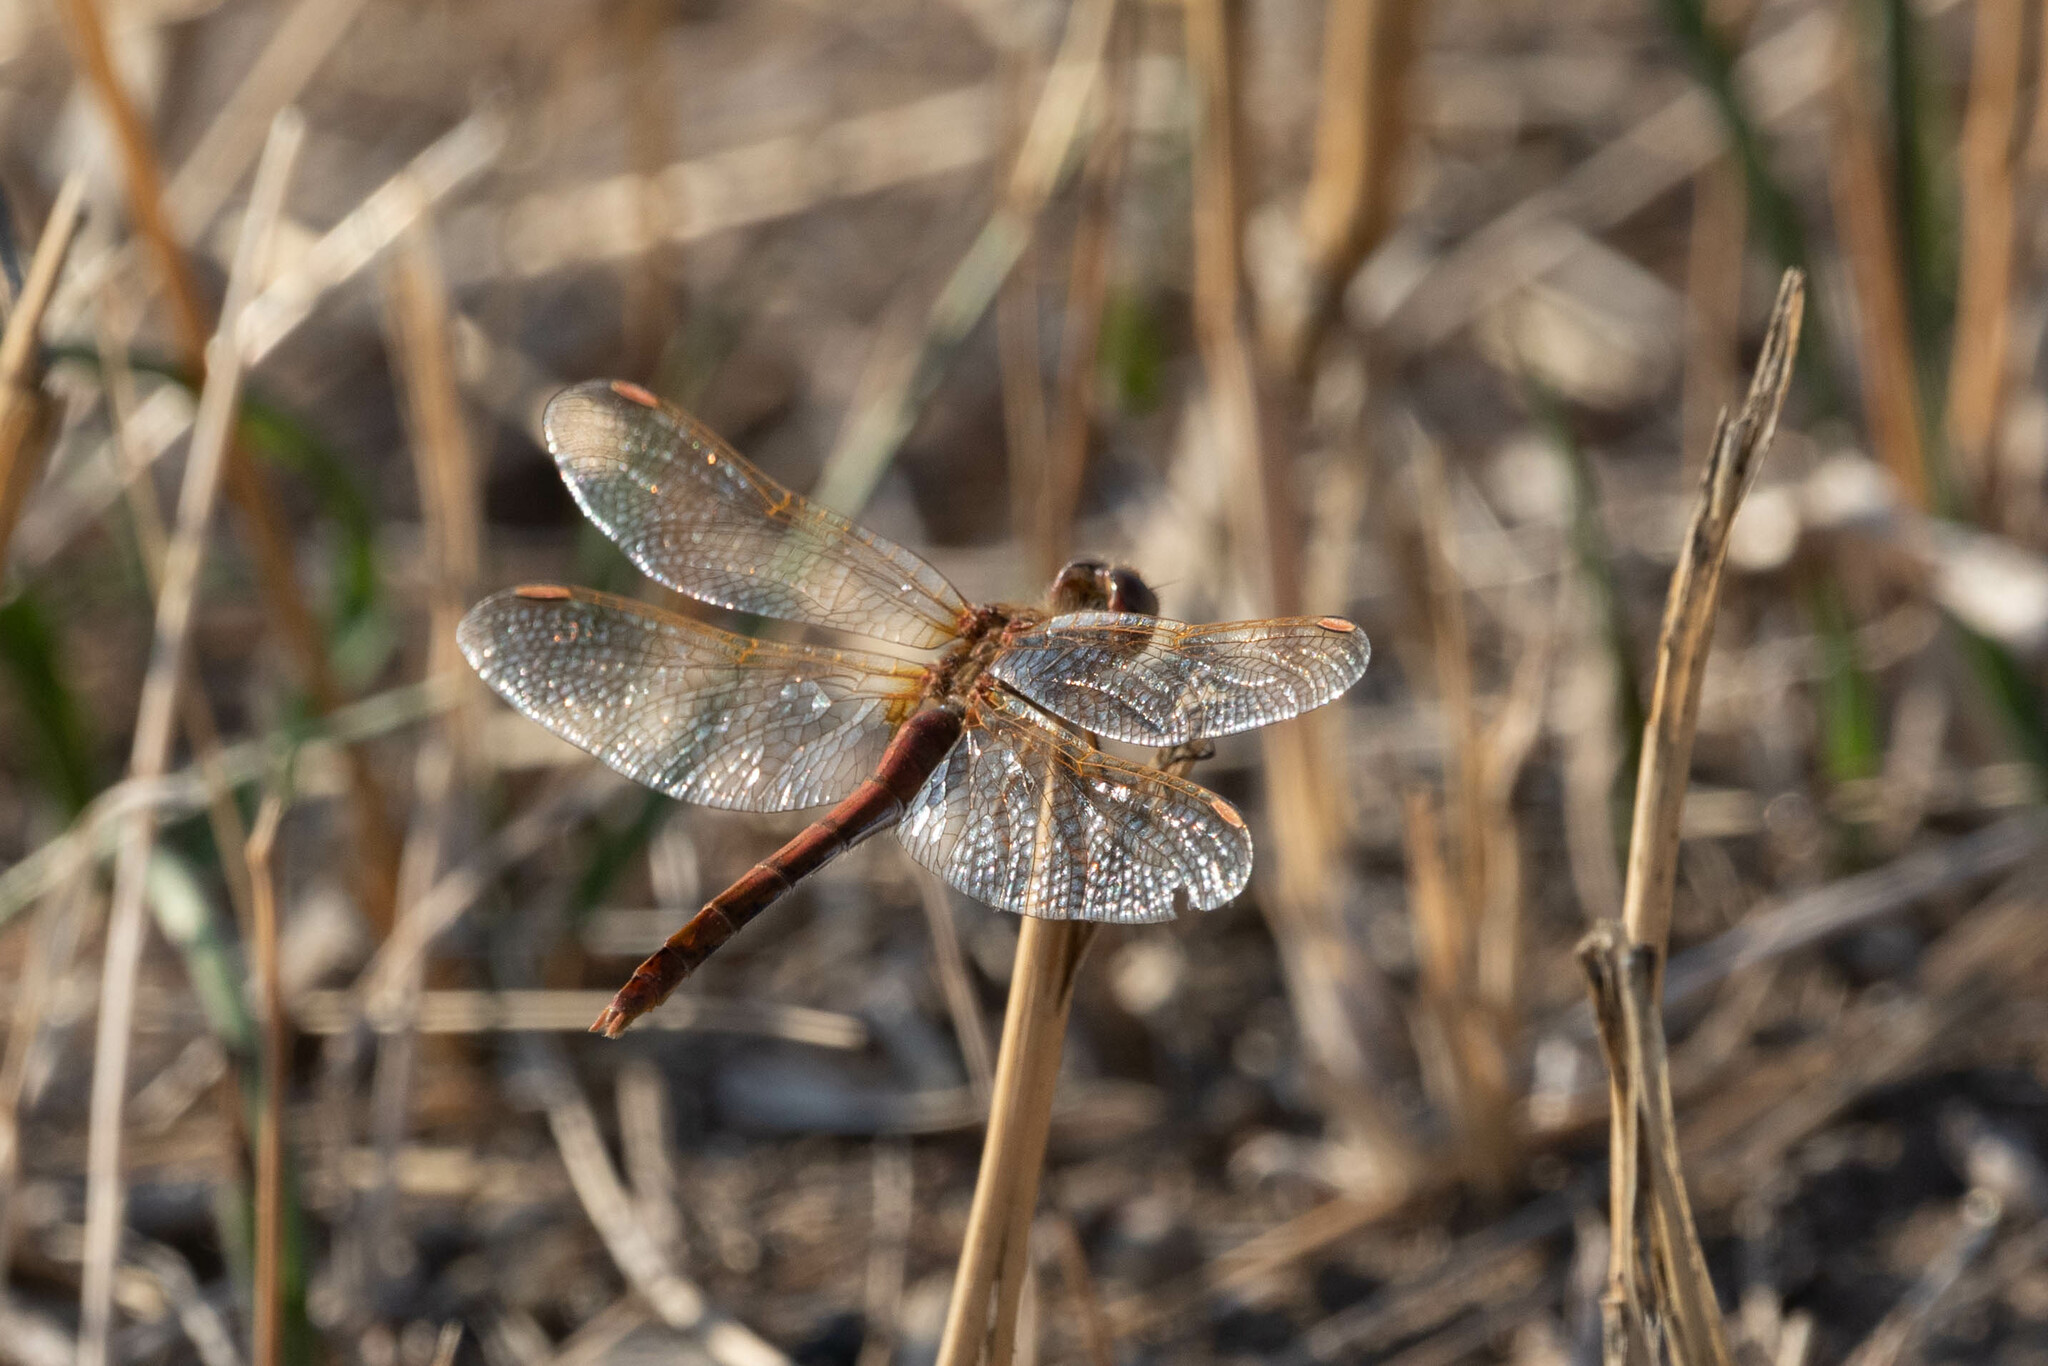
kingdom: Animalia
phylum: Arthropoda
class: Insecta
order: Odonata
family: Libellulidae
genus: Sympetrum
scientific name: Sympetrum costiferum
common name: Saffron-winged meadowhawk
